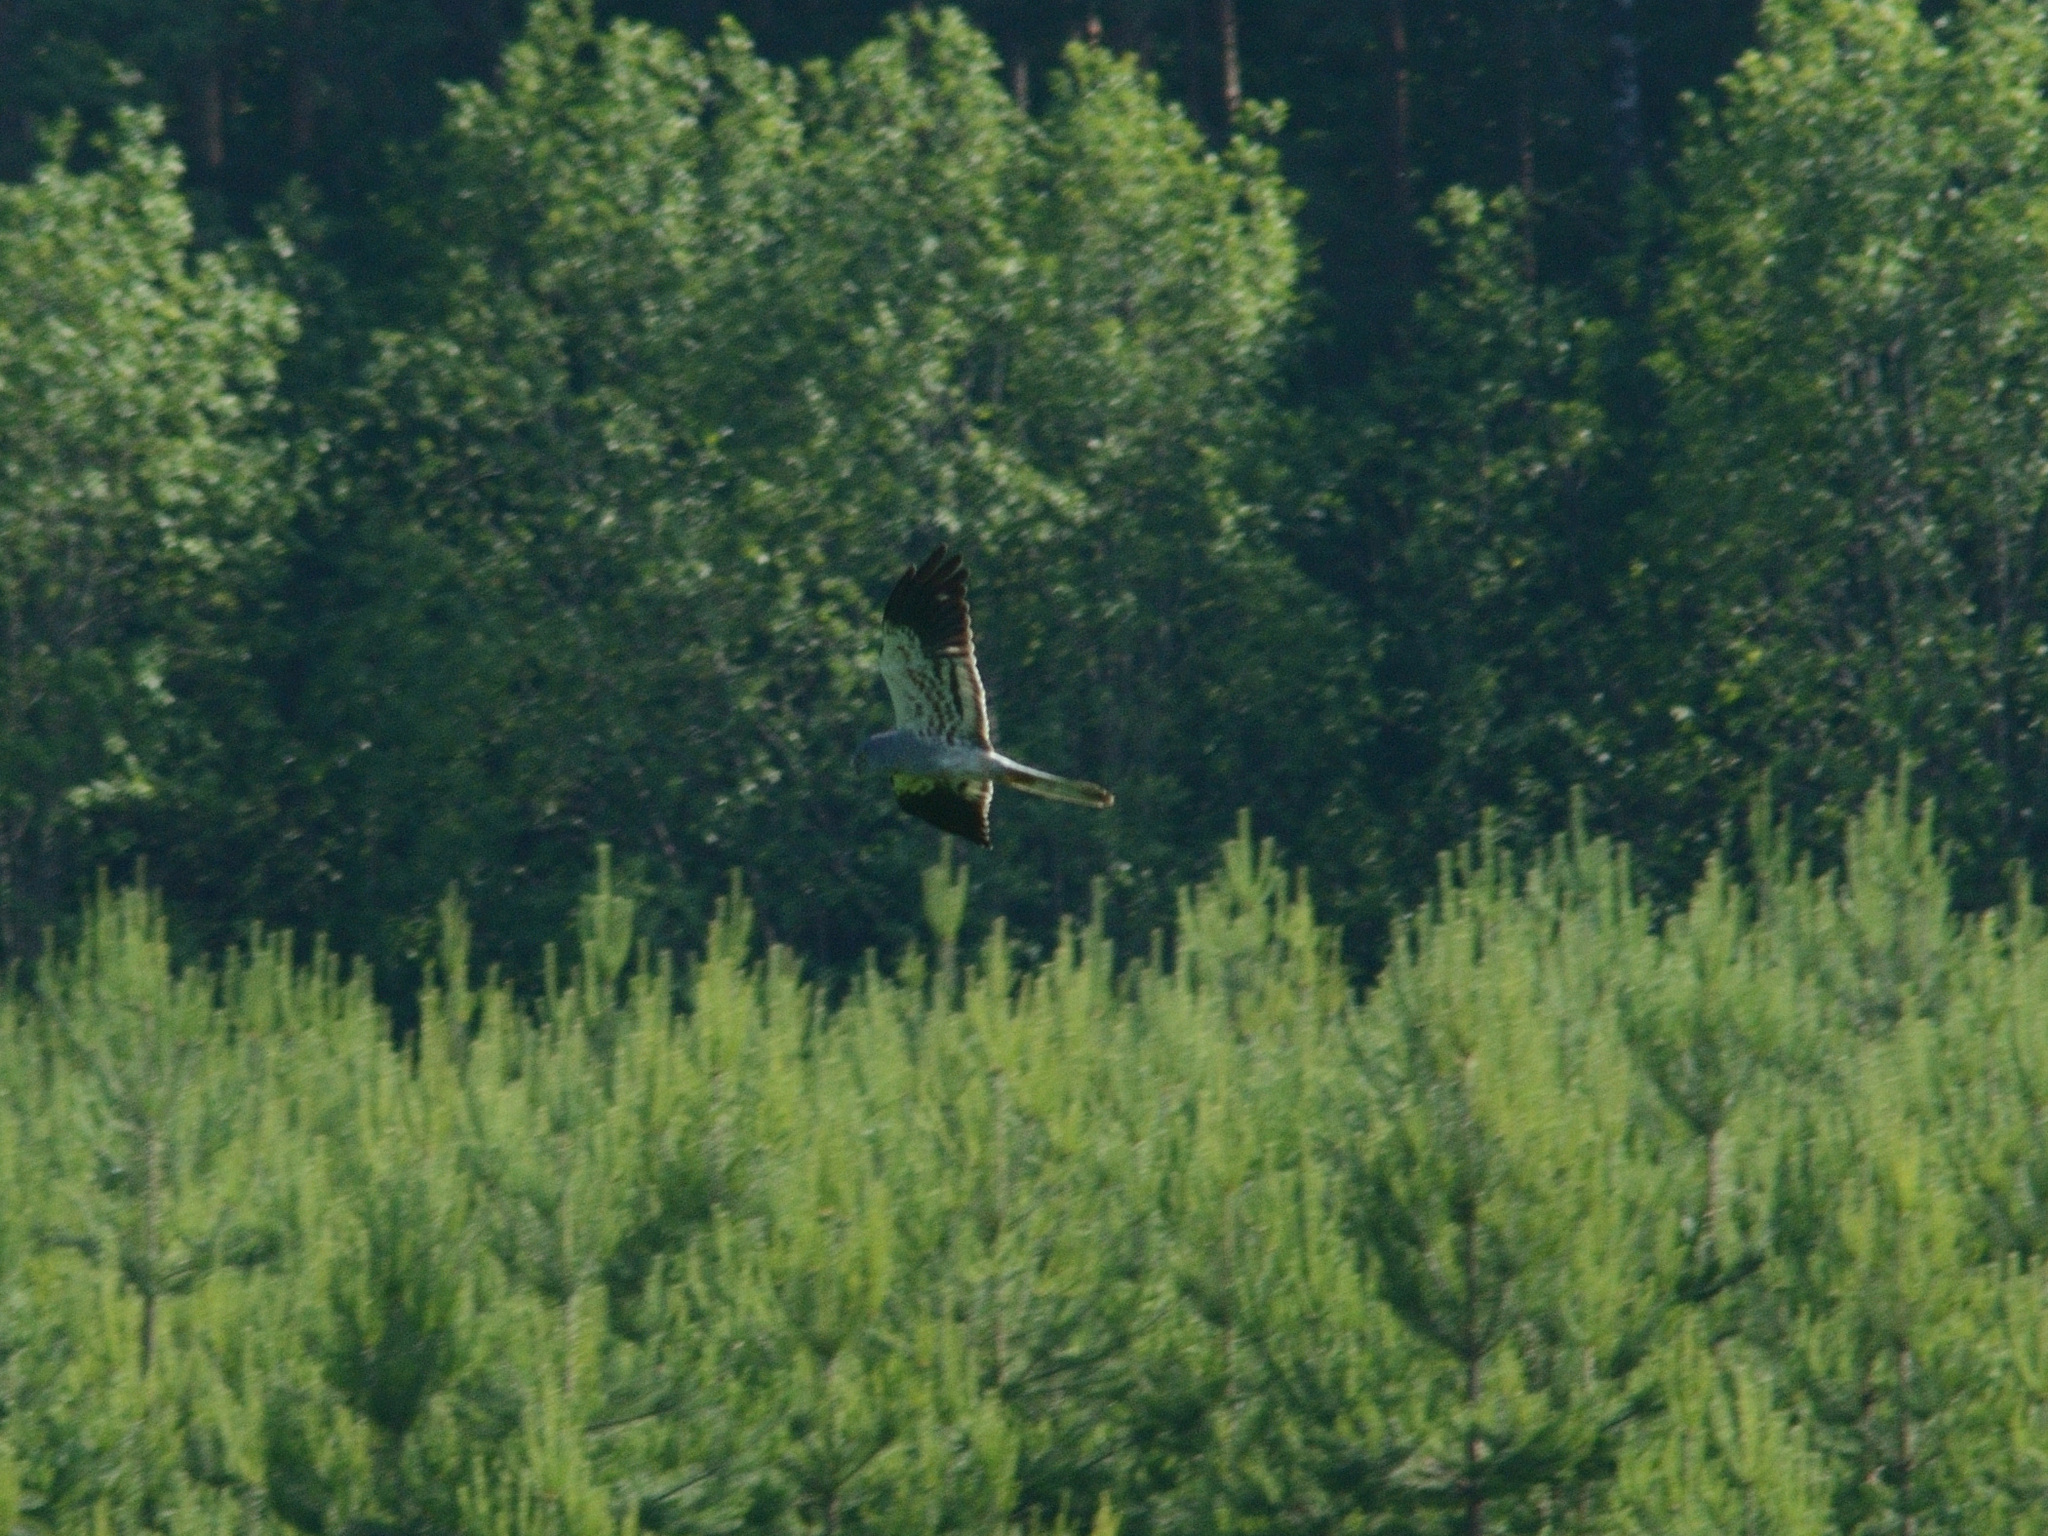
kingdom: Animalia
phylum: Chordata
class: Aves
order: Accipitriformes
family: Accipitridae
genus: Circus
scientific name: Circus pygargus
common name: Montagu's harrier
